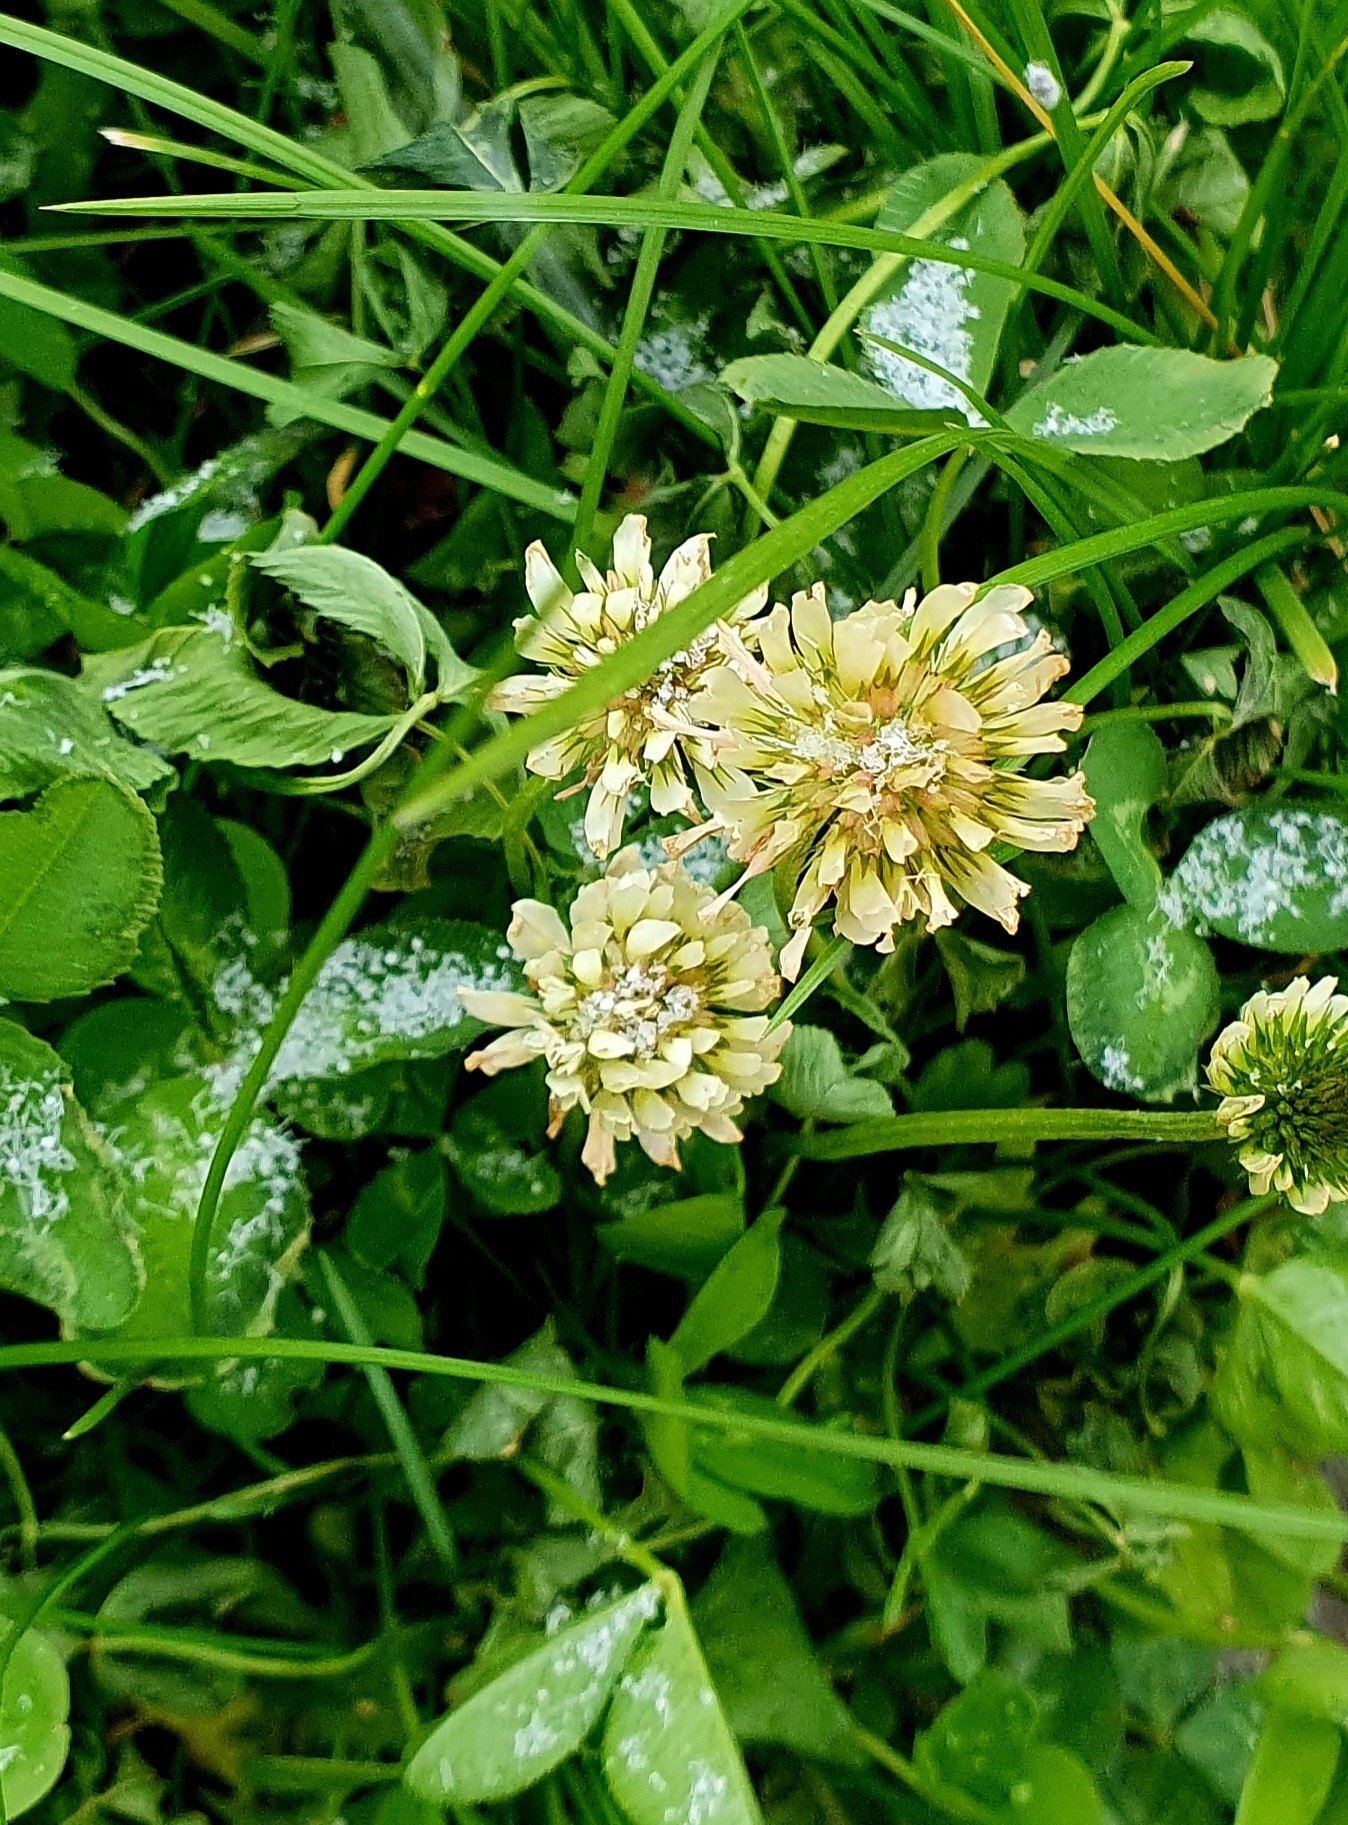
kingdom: Plantae
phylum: Tracheophyta
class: Magnoliopsida
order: Fabales
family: Fabaceae
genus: Trifolium
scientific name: Trifolium repens
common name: White clover
